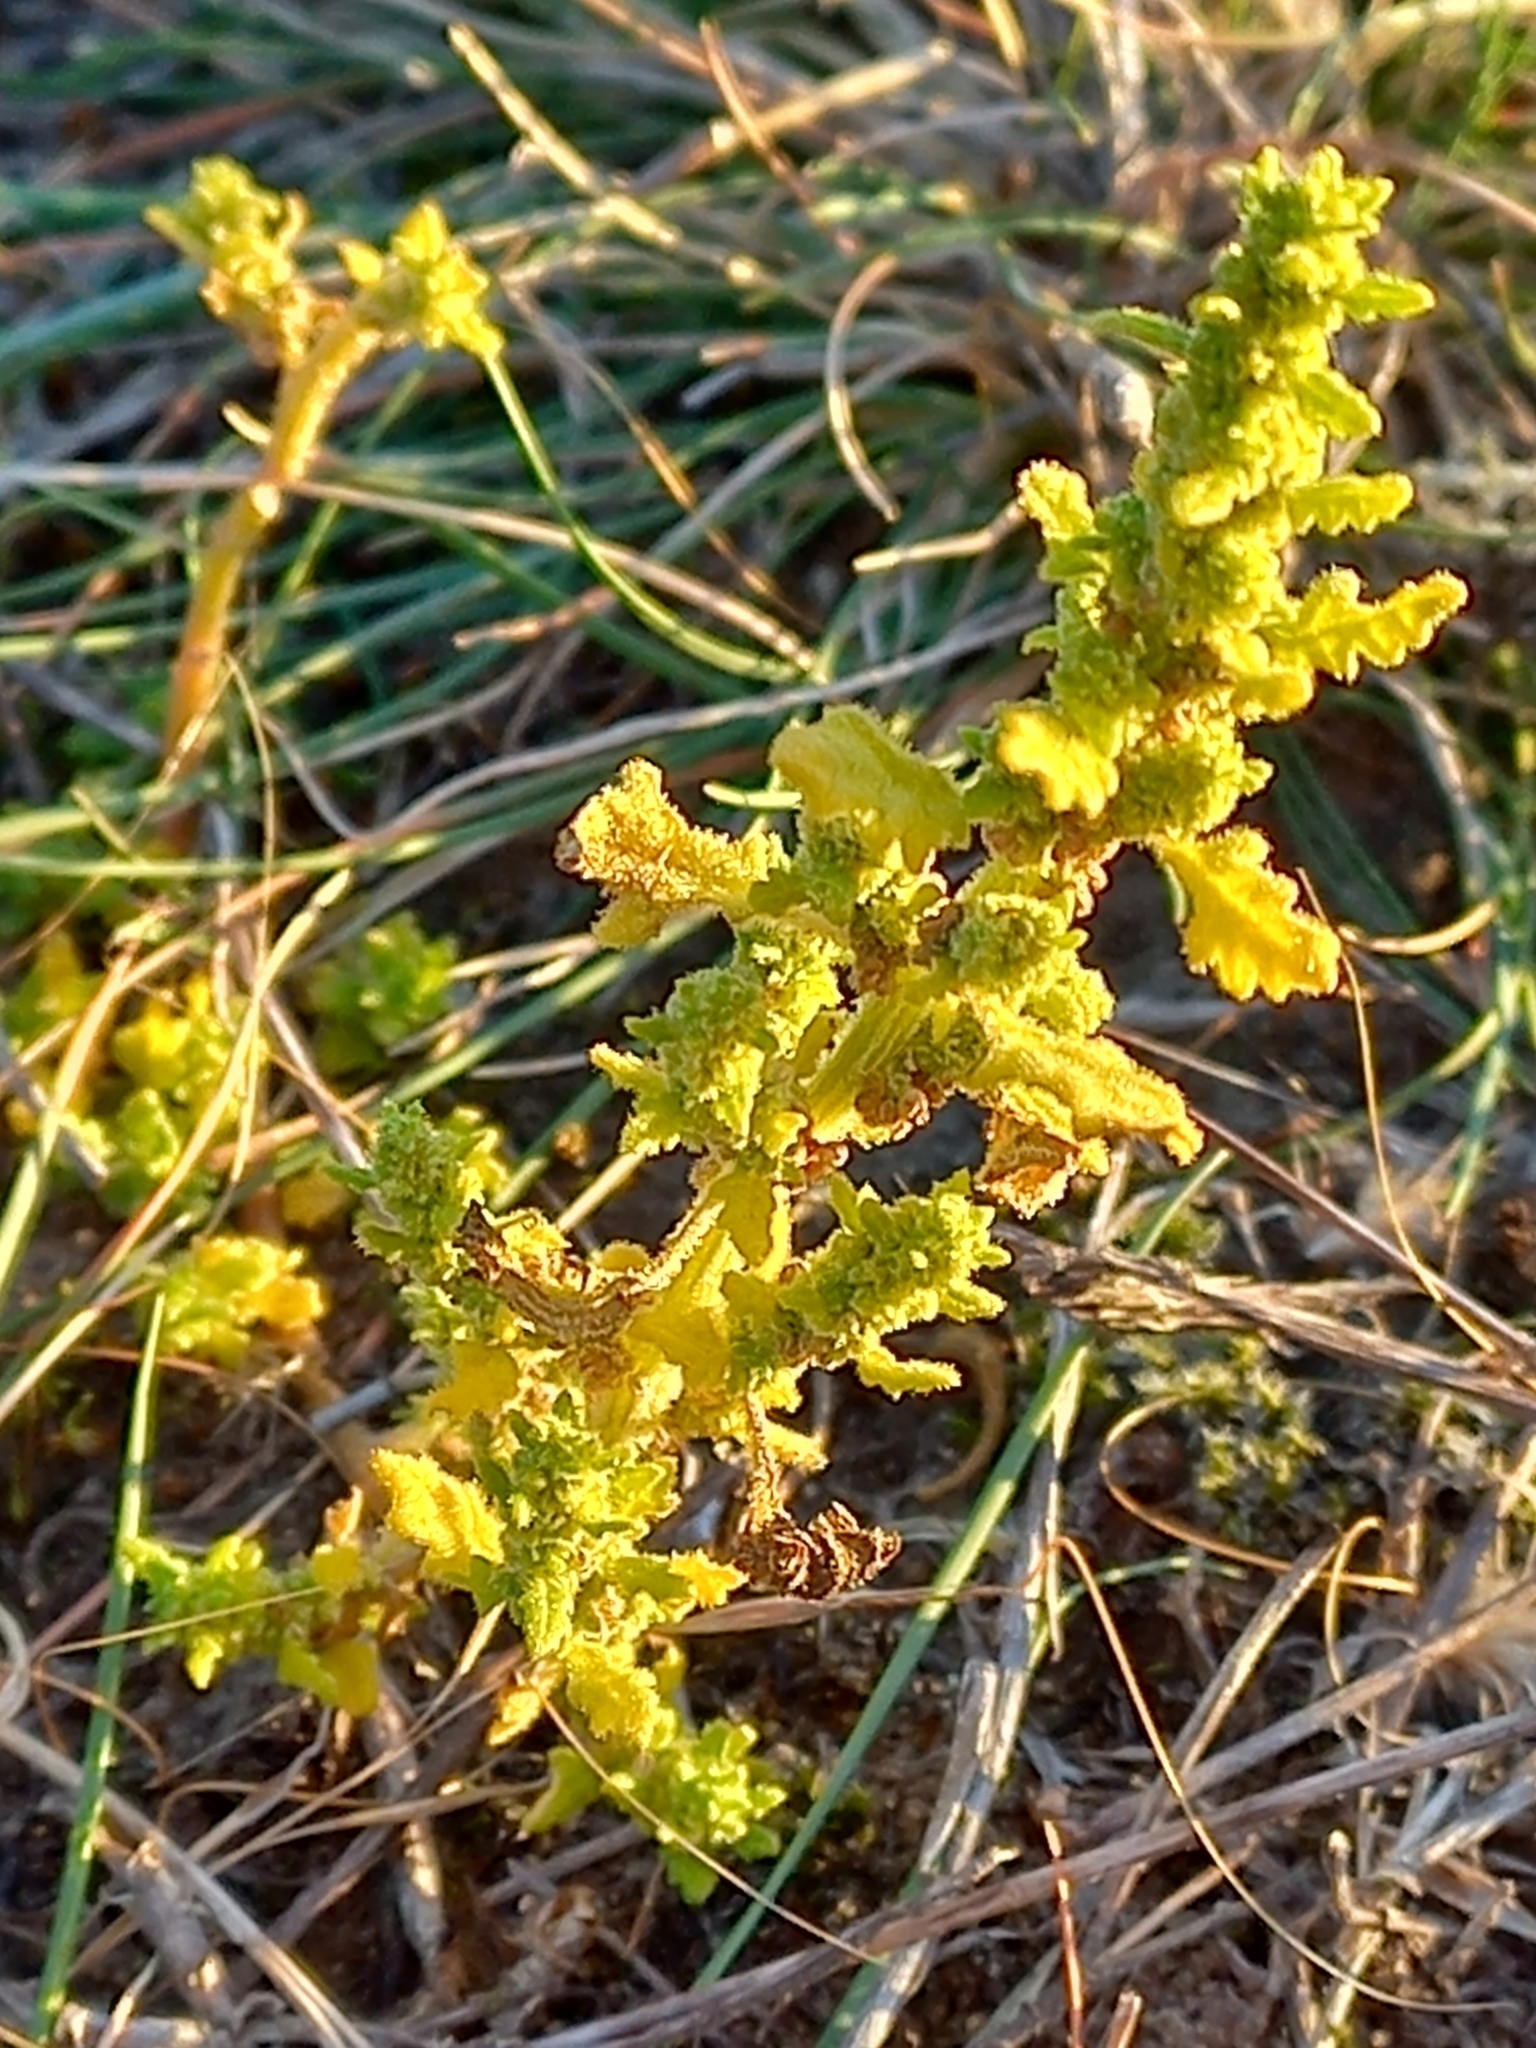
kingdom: Plantae
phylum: Tracheophyta
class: Magnoliopsida
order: Caryophyllales
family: Amaranthaceae
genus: Dysphania
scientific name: Dysphania pumilio
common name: Clammy goosefoot
